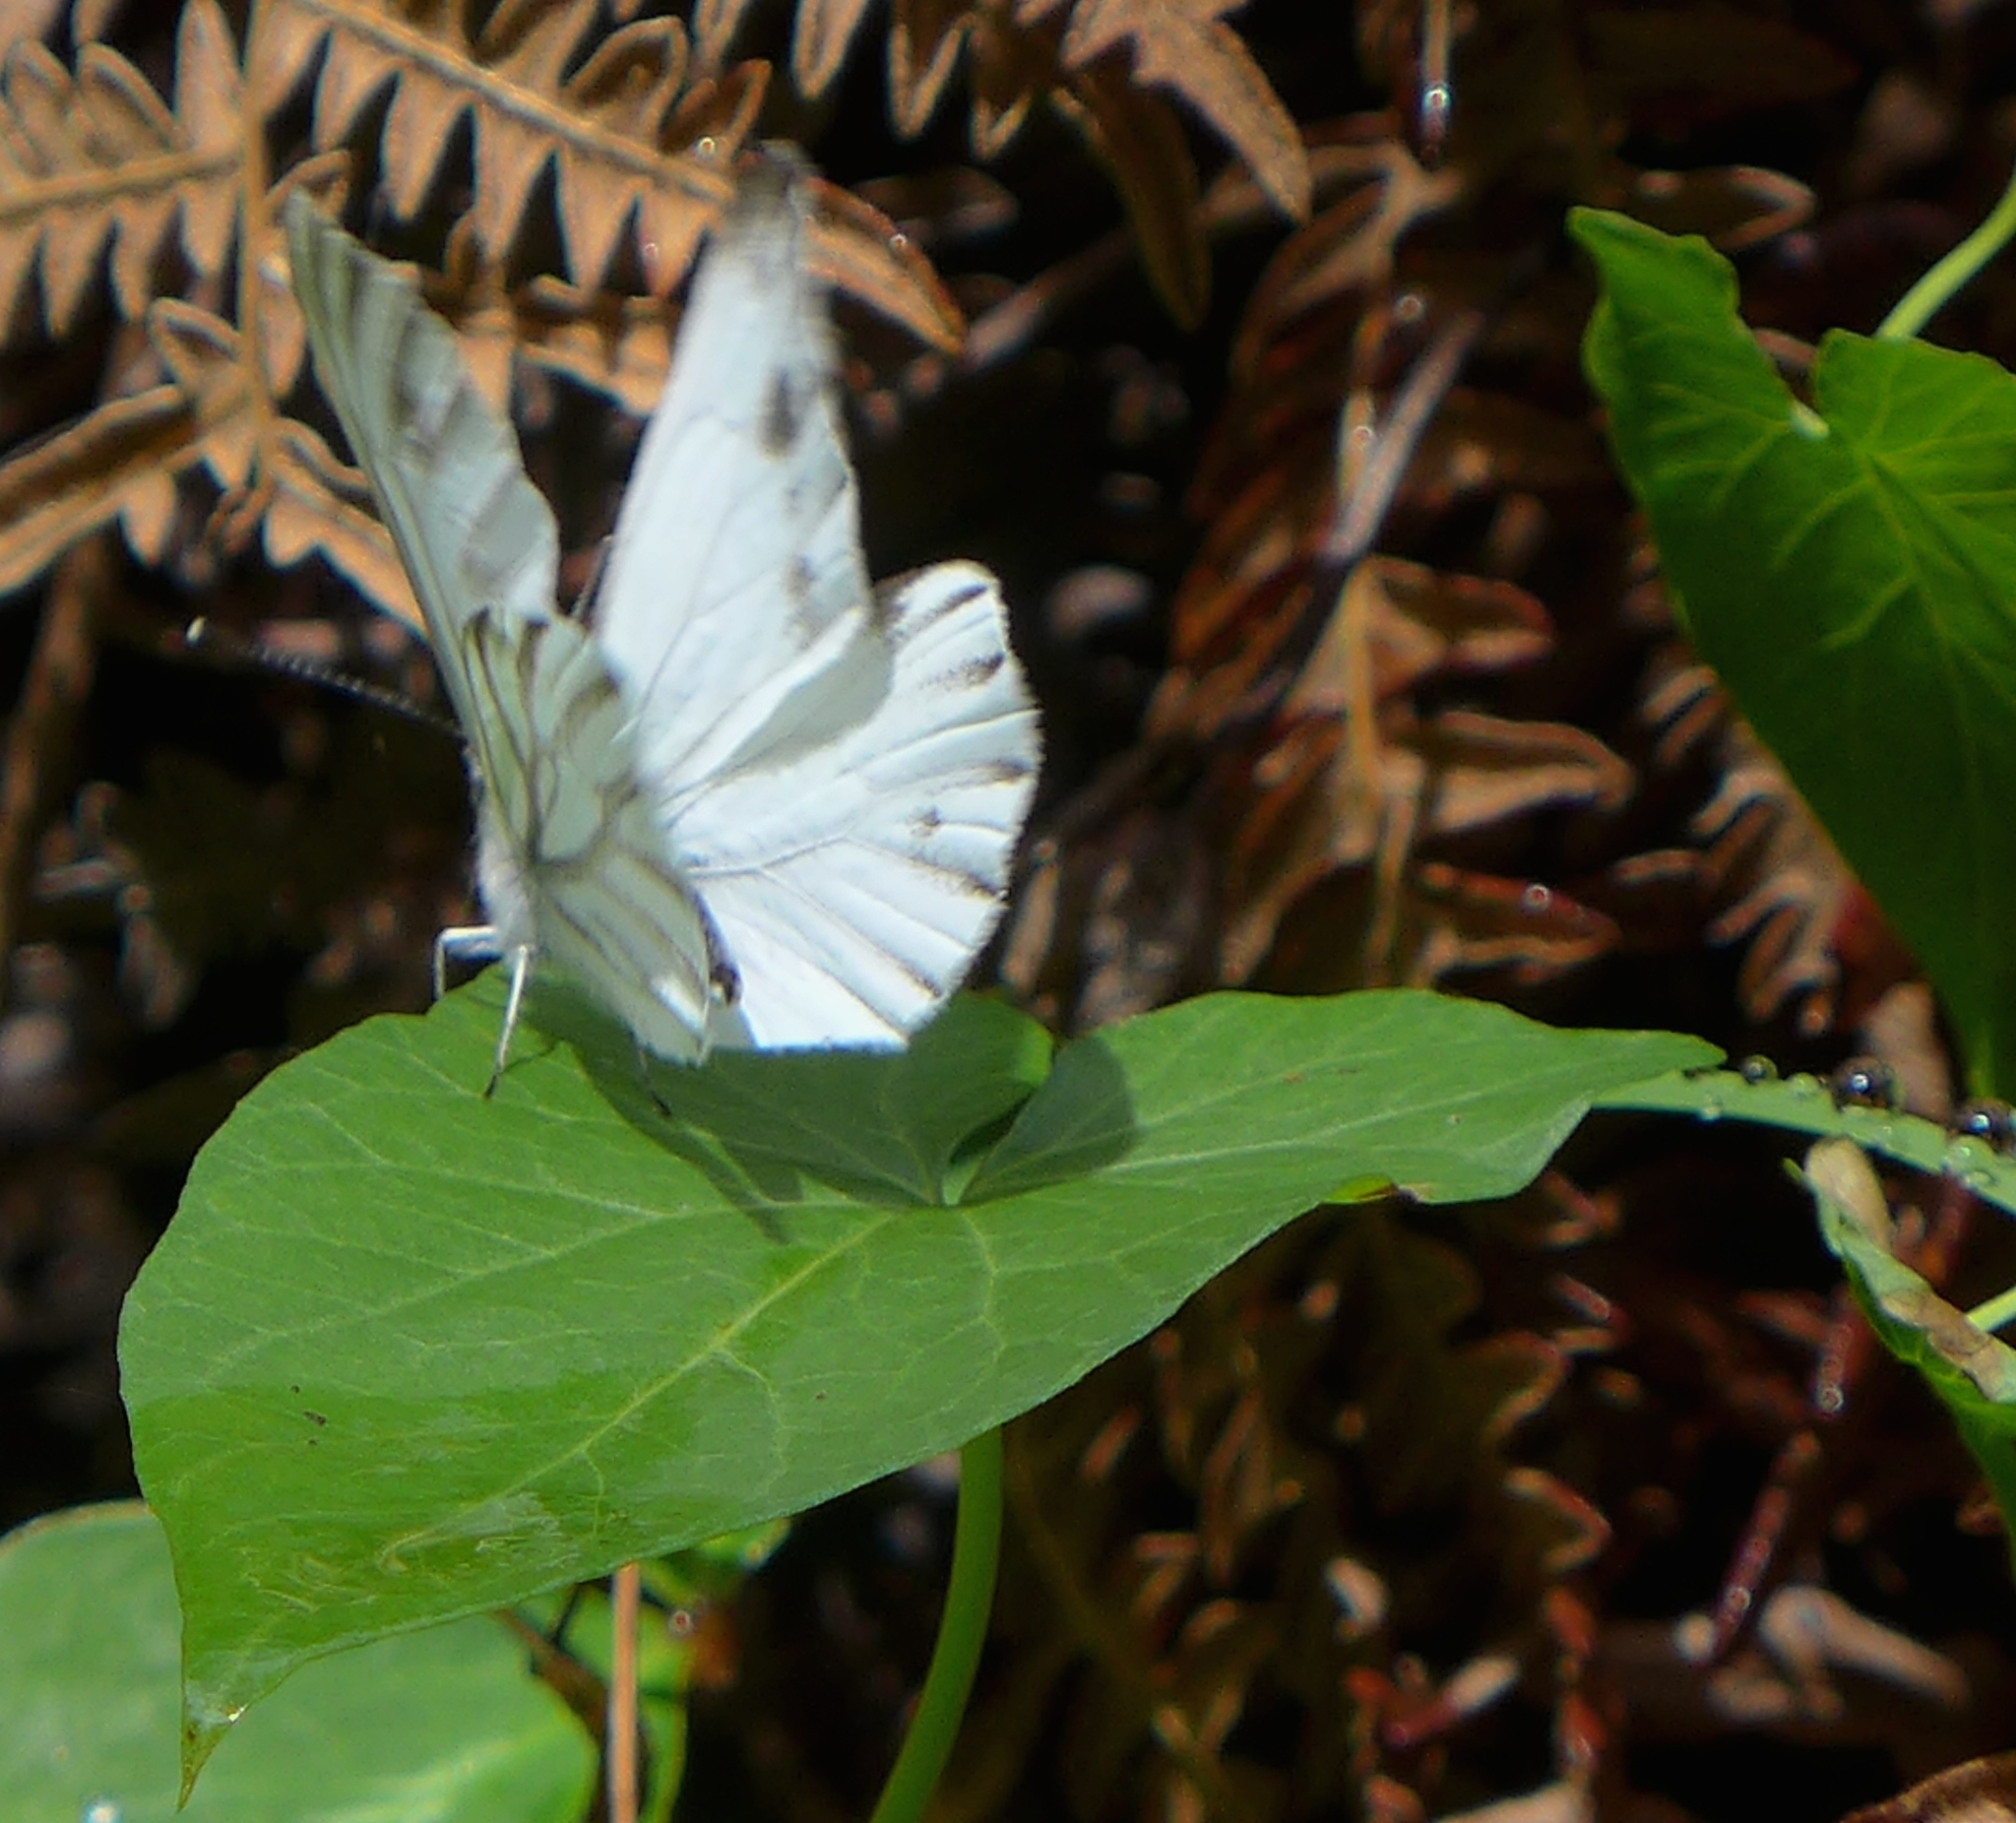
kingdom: Animalia
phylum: Arthropoda
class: Insecta
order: Lepidoptera
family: Pieridae
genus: Pieris
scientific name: Pieris marginalis
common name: Margined white
